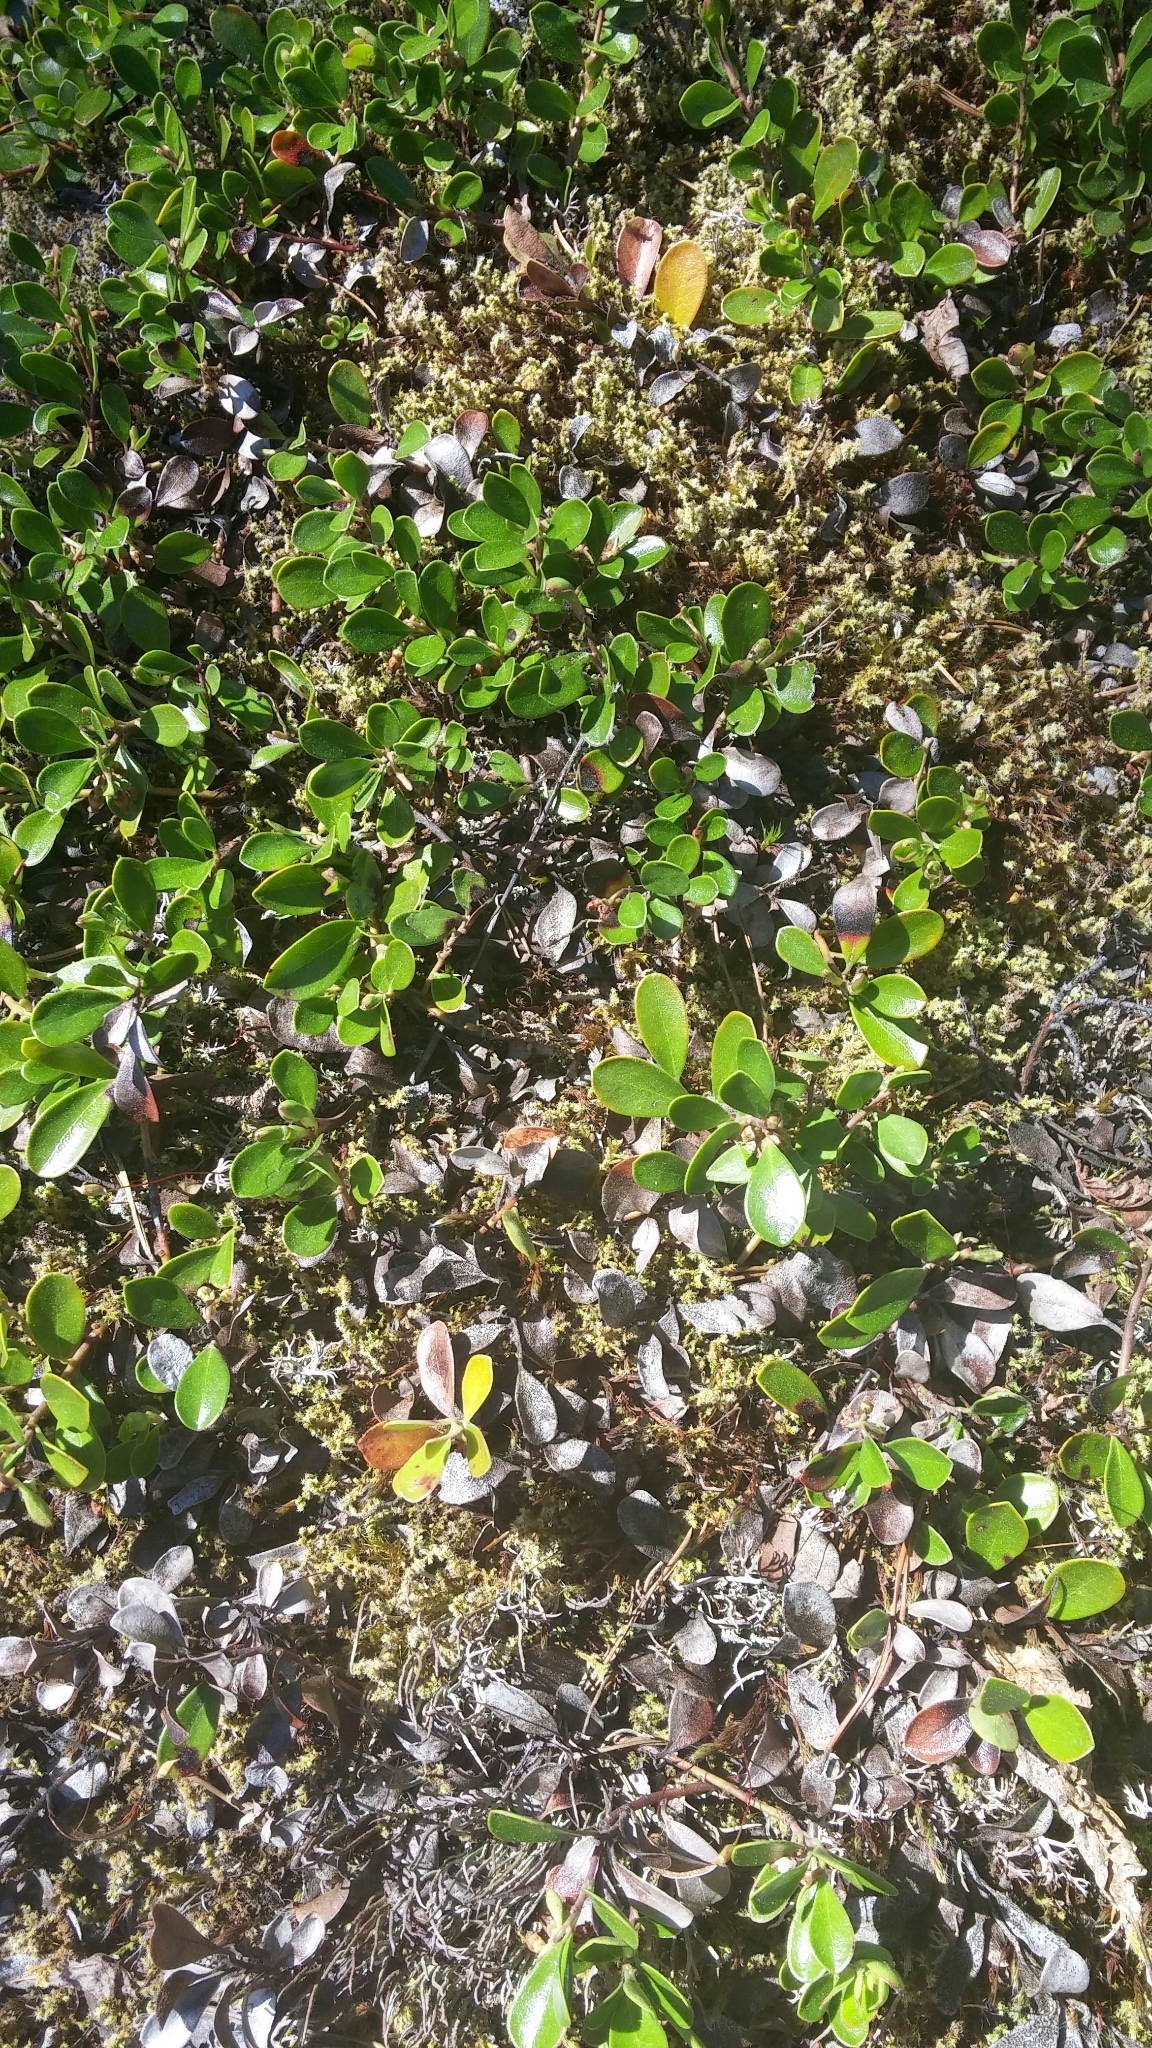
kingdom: Plantae
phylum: Tracheophyta
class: Magnoliopsida
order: Ericales
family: Ericaceae
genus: Arctostaphylos
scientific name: Arctostaphylos uva-ursi
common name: Bearberry
